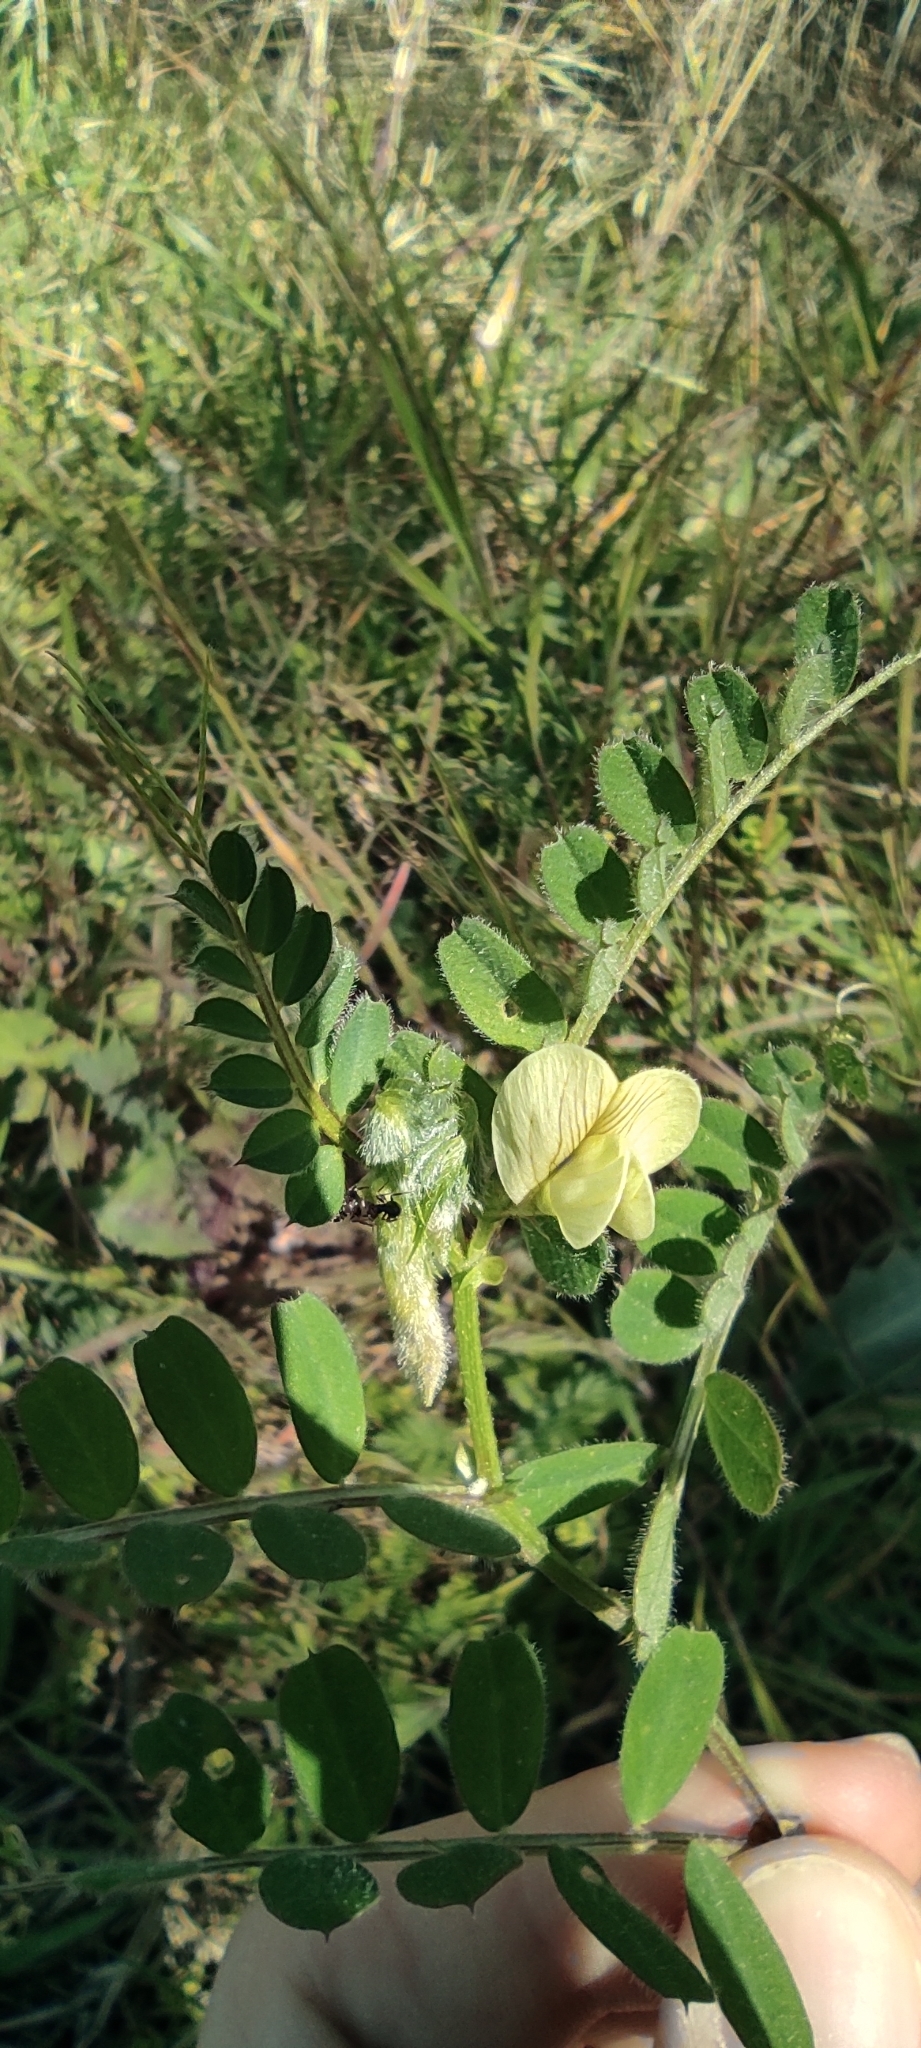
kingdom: Plantae
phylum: Tracheophyta
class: Magnoliopsida
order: Fabales
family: Fabaceae
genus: Vicia
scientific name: Vicia hybrida
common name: Hairy yellow vetch
